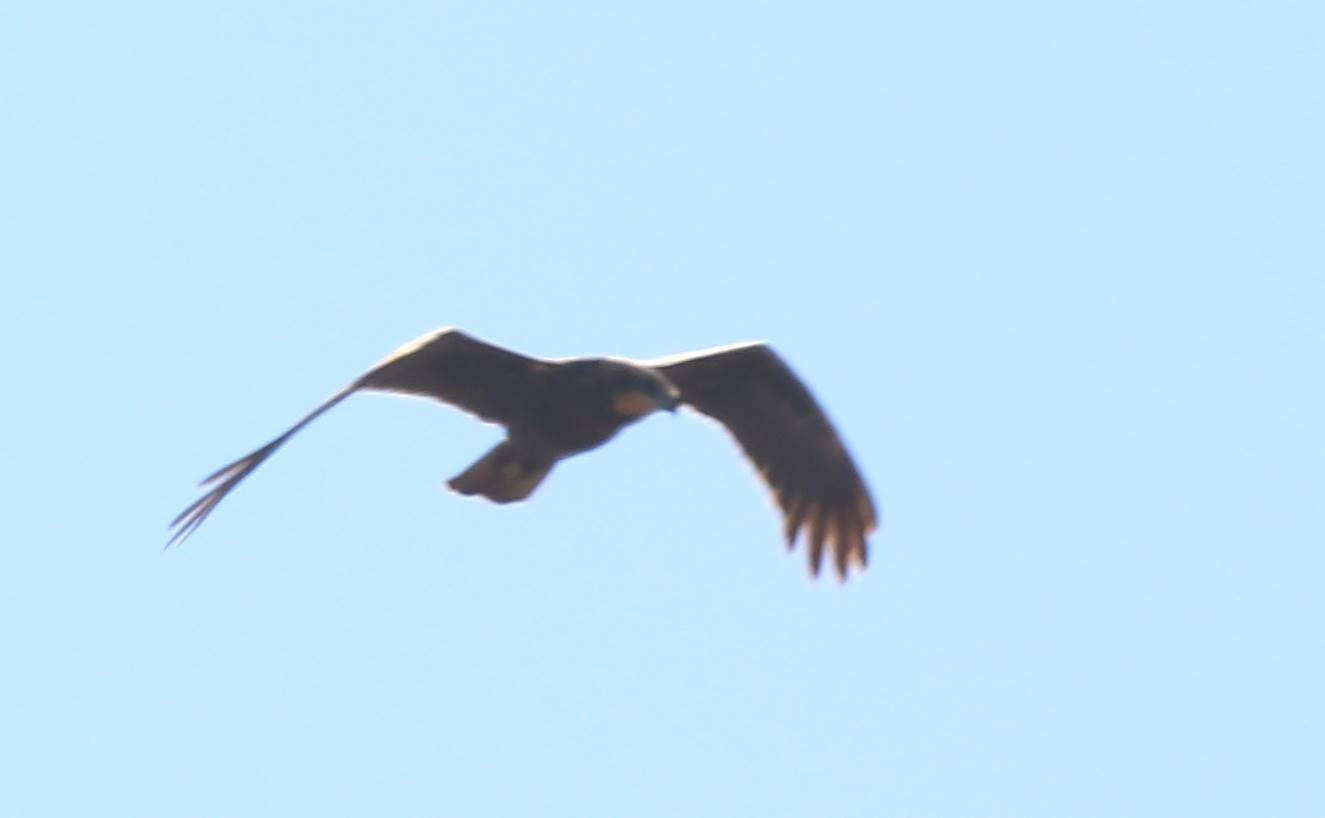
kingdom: Animalia
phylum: Chordata
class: Aves
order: Accipitriformes
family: Accipitridae
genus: Circus
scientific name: Circus aeruginosus
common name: Western marsh harrier
